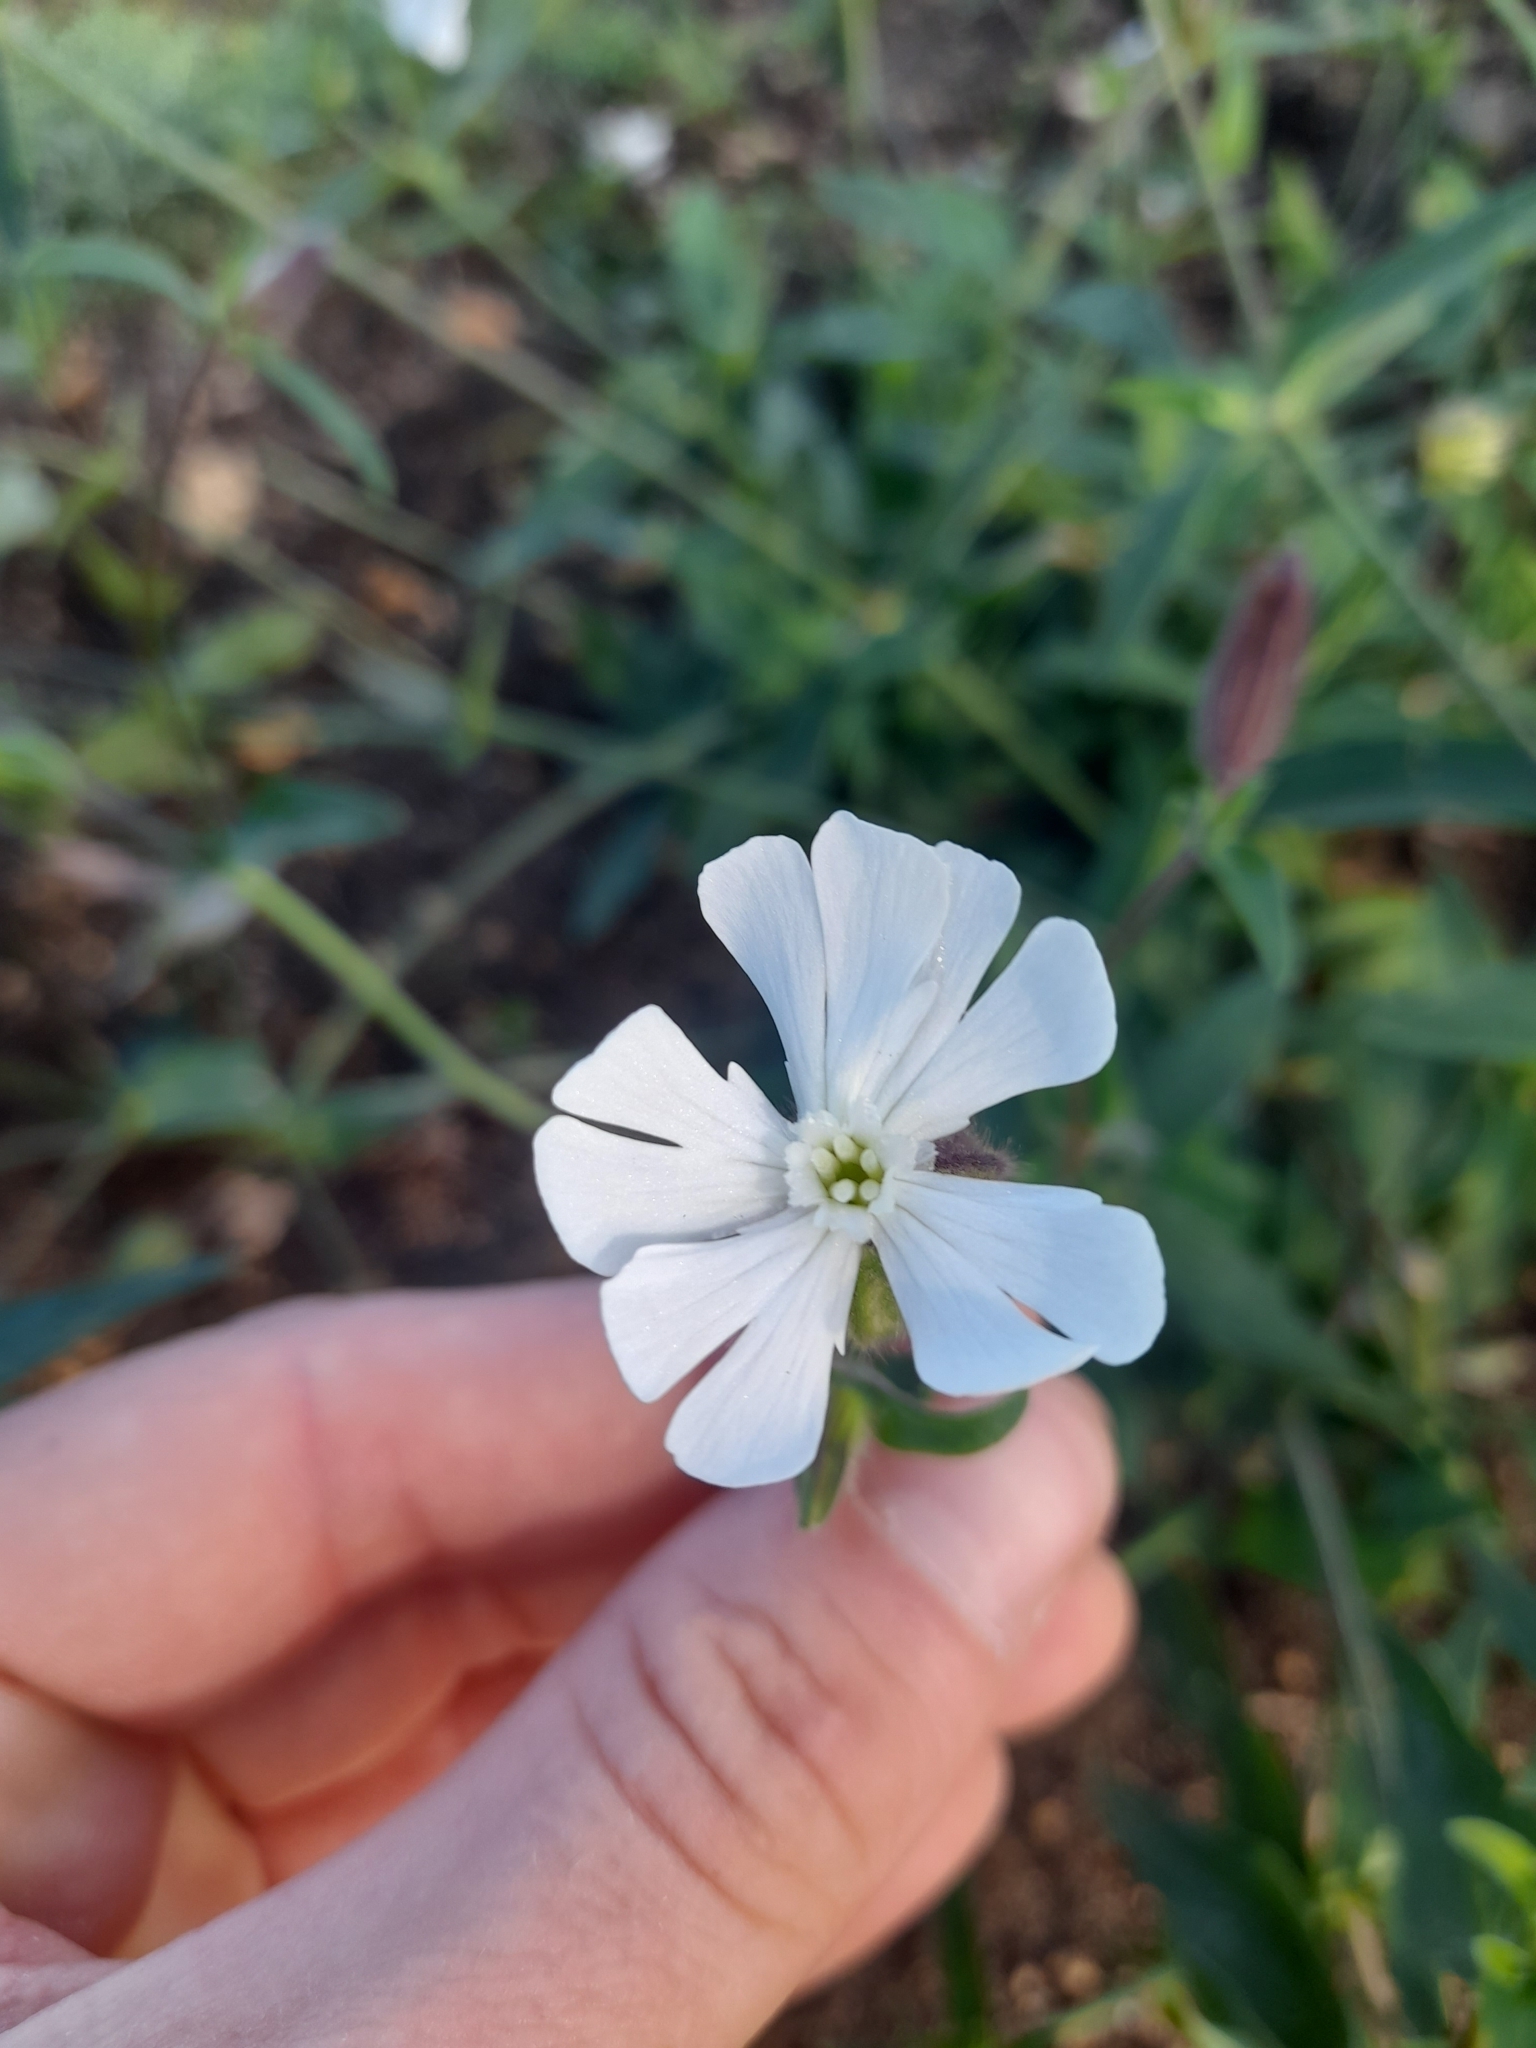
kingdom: Plantae
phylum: Tracheophyta
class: Magnoliopsida
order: Caryophyllales
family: Caryophyllaceae
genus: Silene
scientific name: Silene latifolia
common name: White campion
